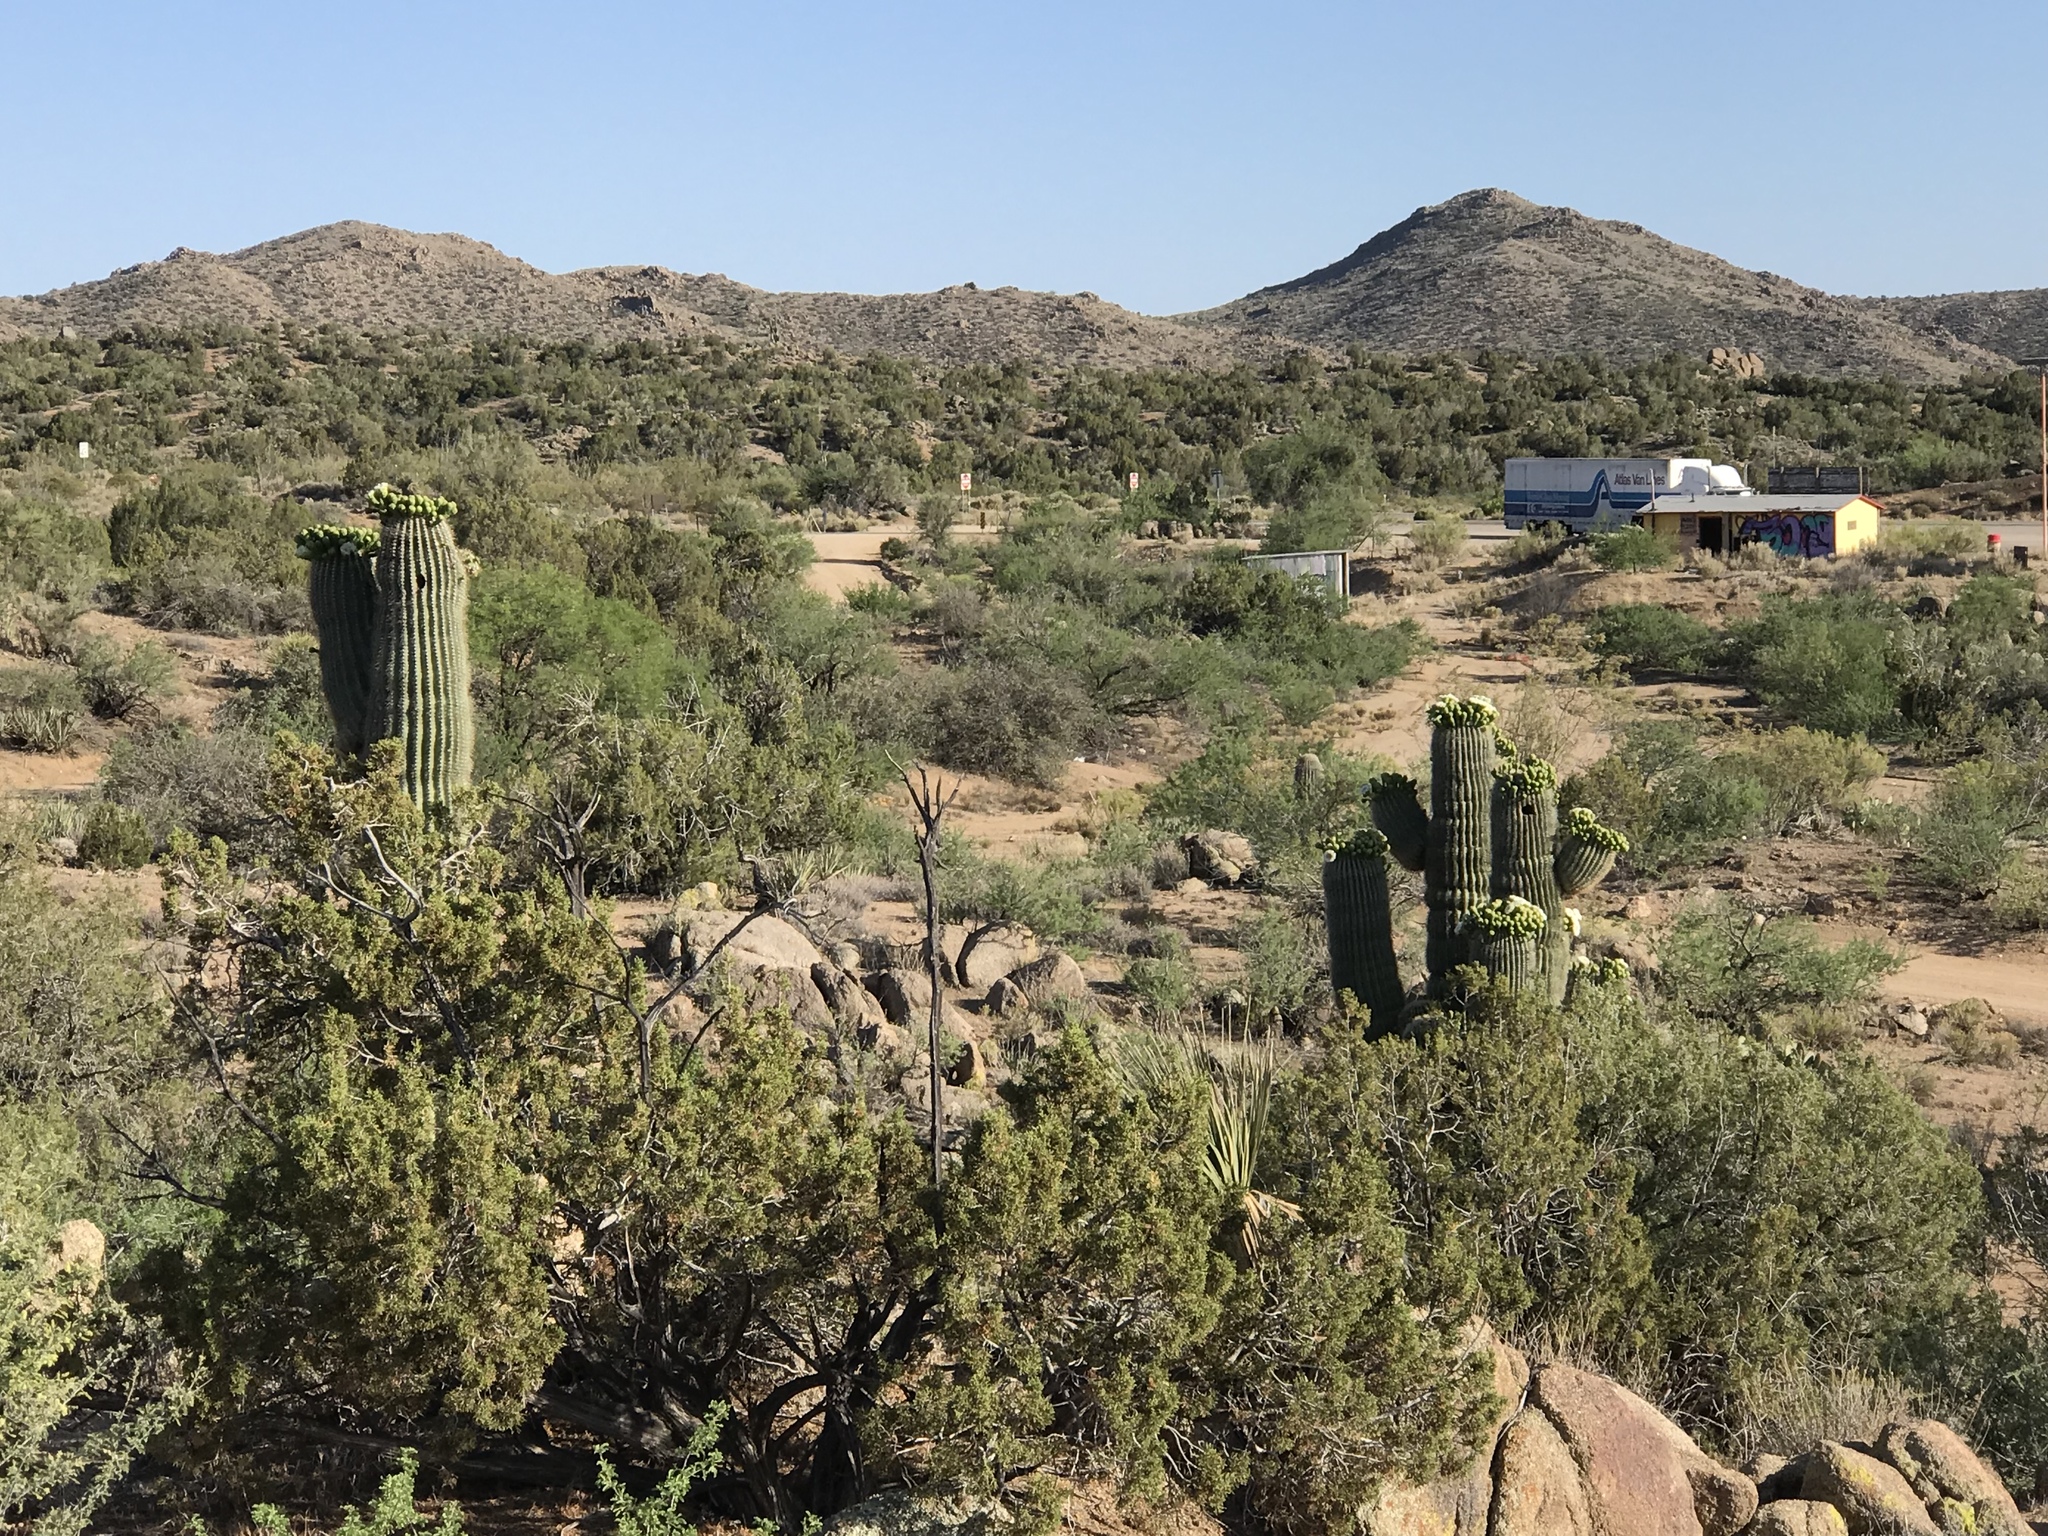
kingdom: Plantae
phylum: Tracheophyta
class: Magnoliopsida
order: Caryophyllales
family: Cactaceae
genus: Carnegiea
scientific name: Carnegiea gigantea
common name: Saguaro
